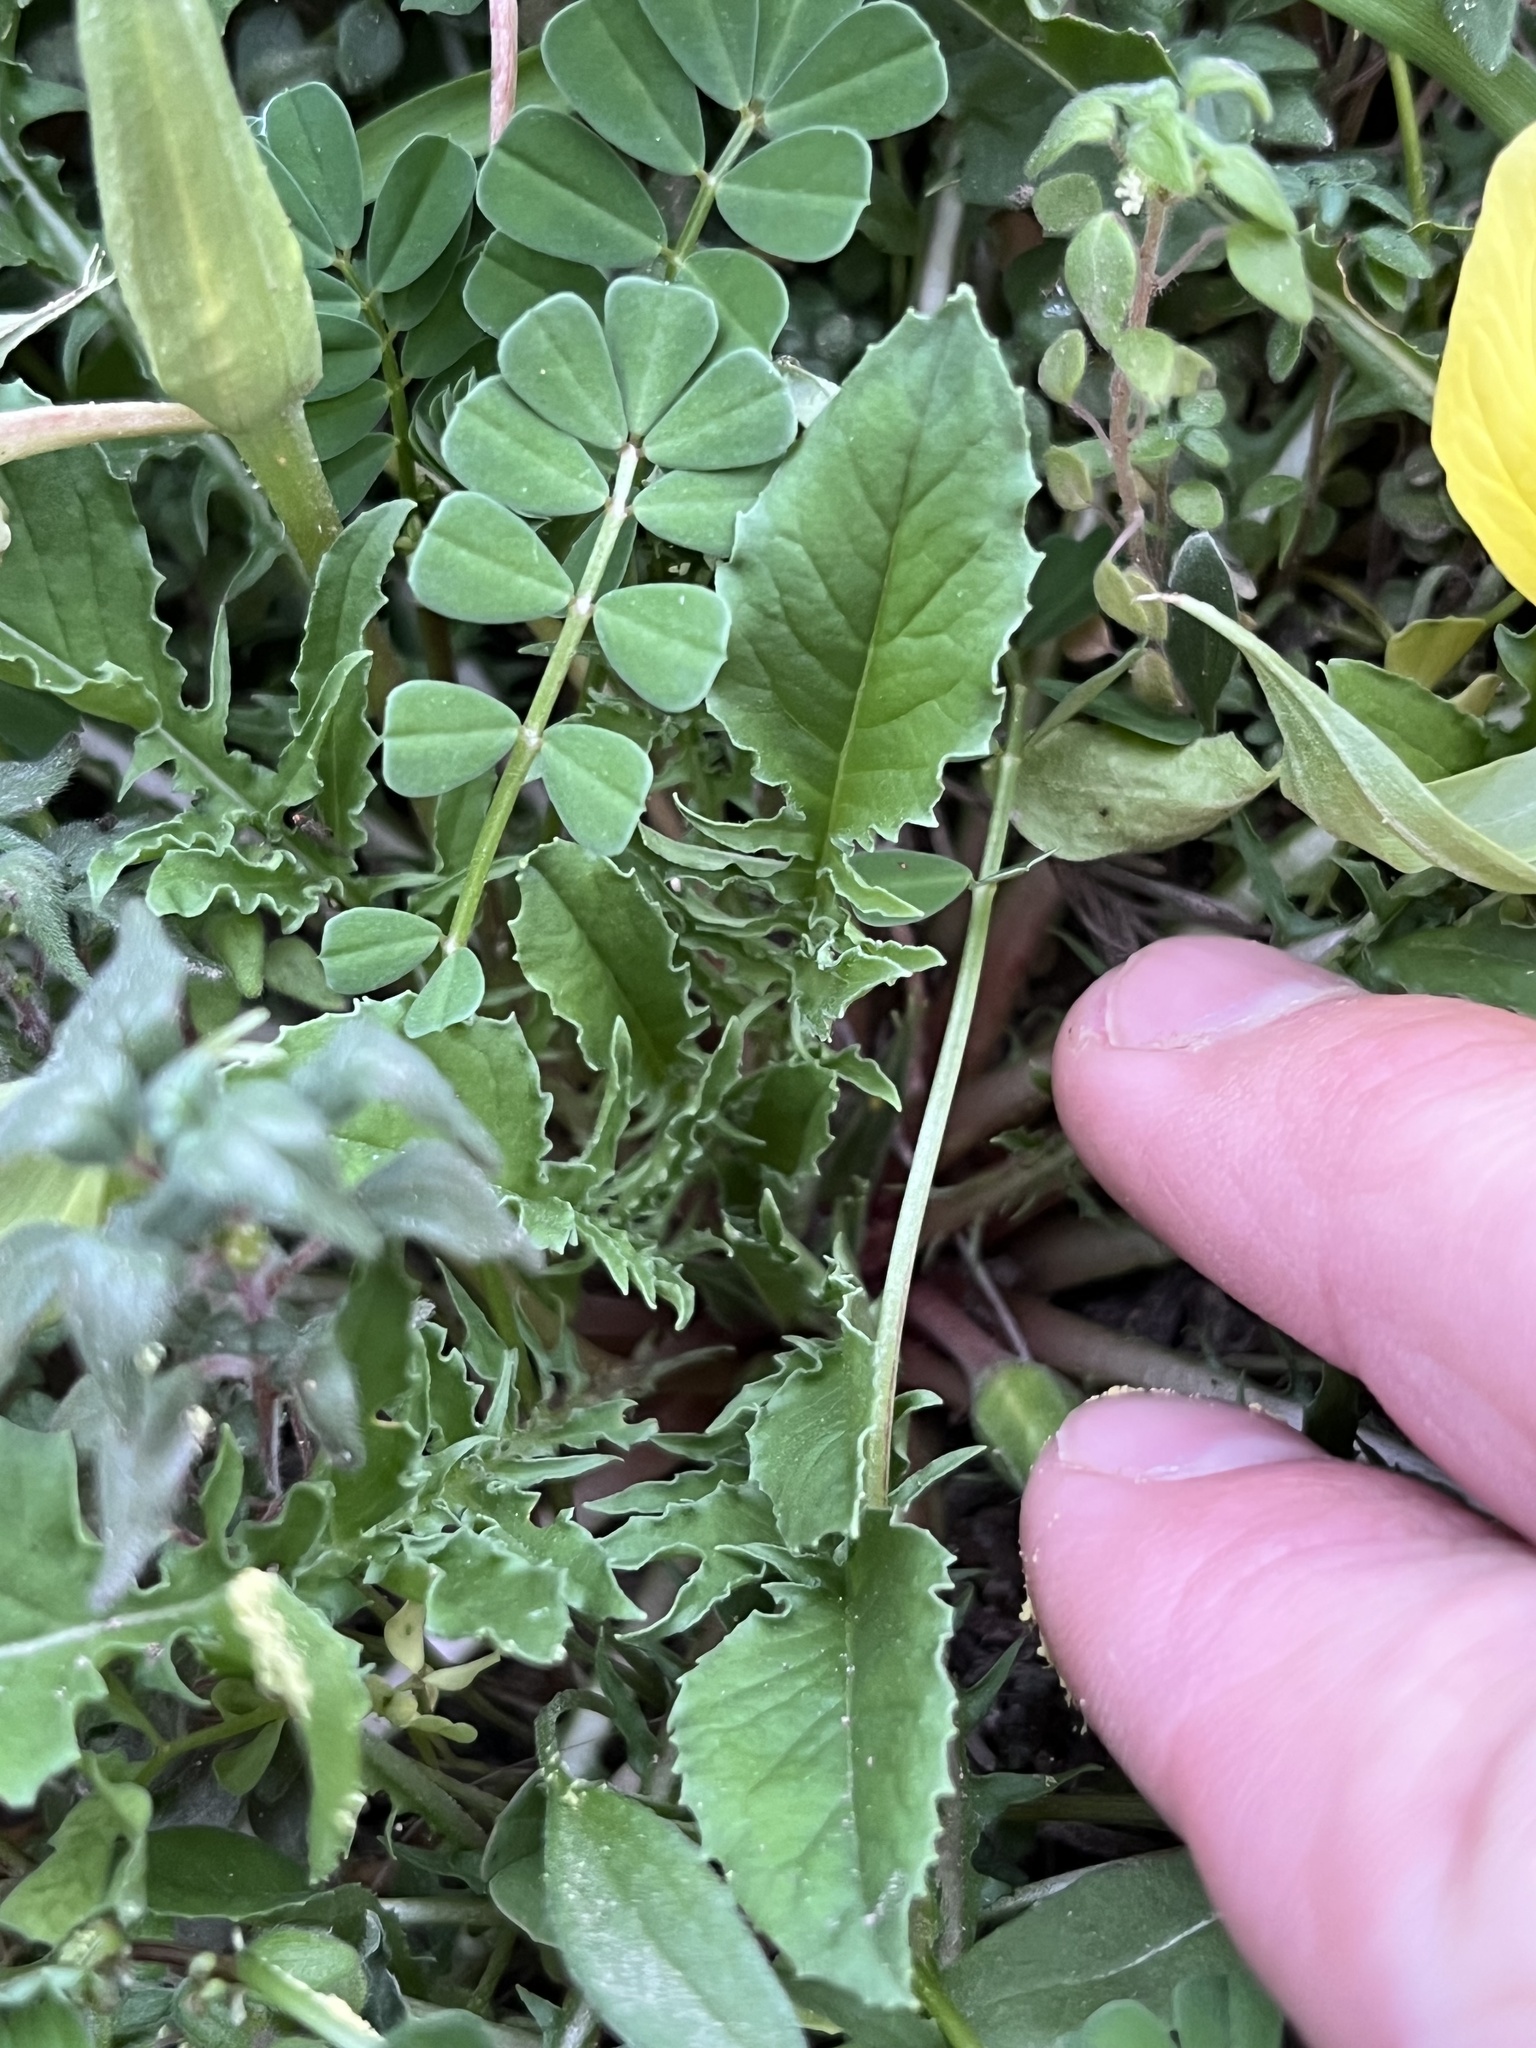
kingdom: Plantae
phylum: Tracheophyta
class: Magnoliopsida
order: Myrtales
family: Onagraceae
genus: Oenothera
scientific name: Oenothera triloba
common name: Sessile evening-primrose
